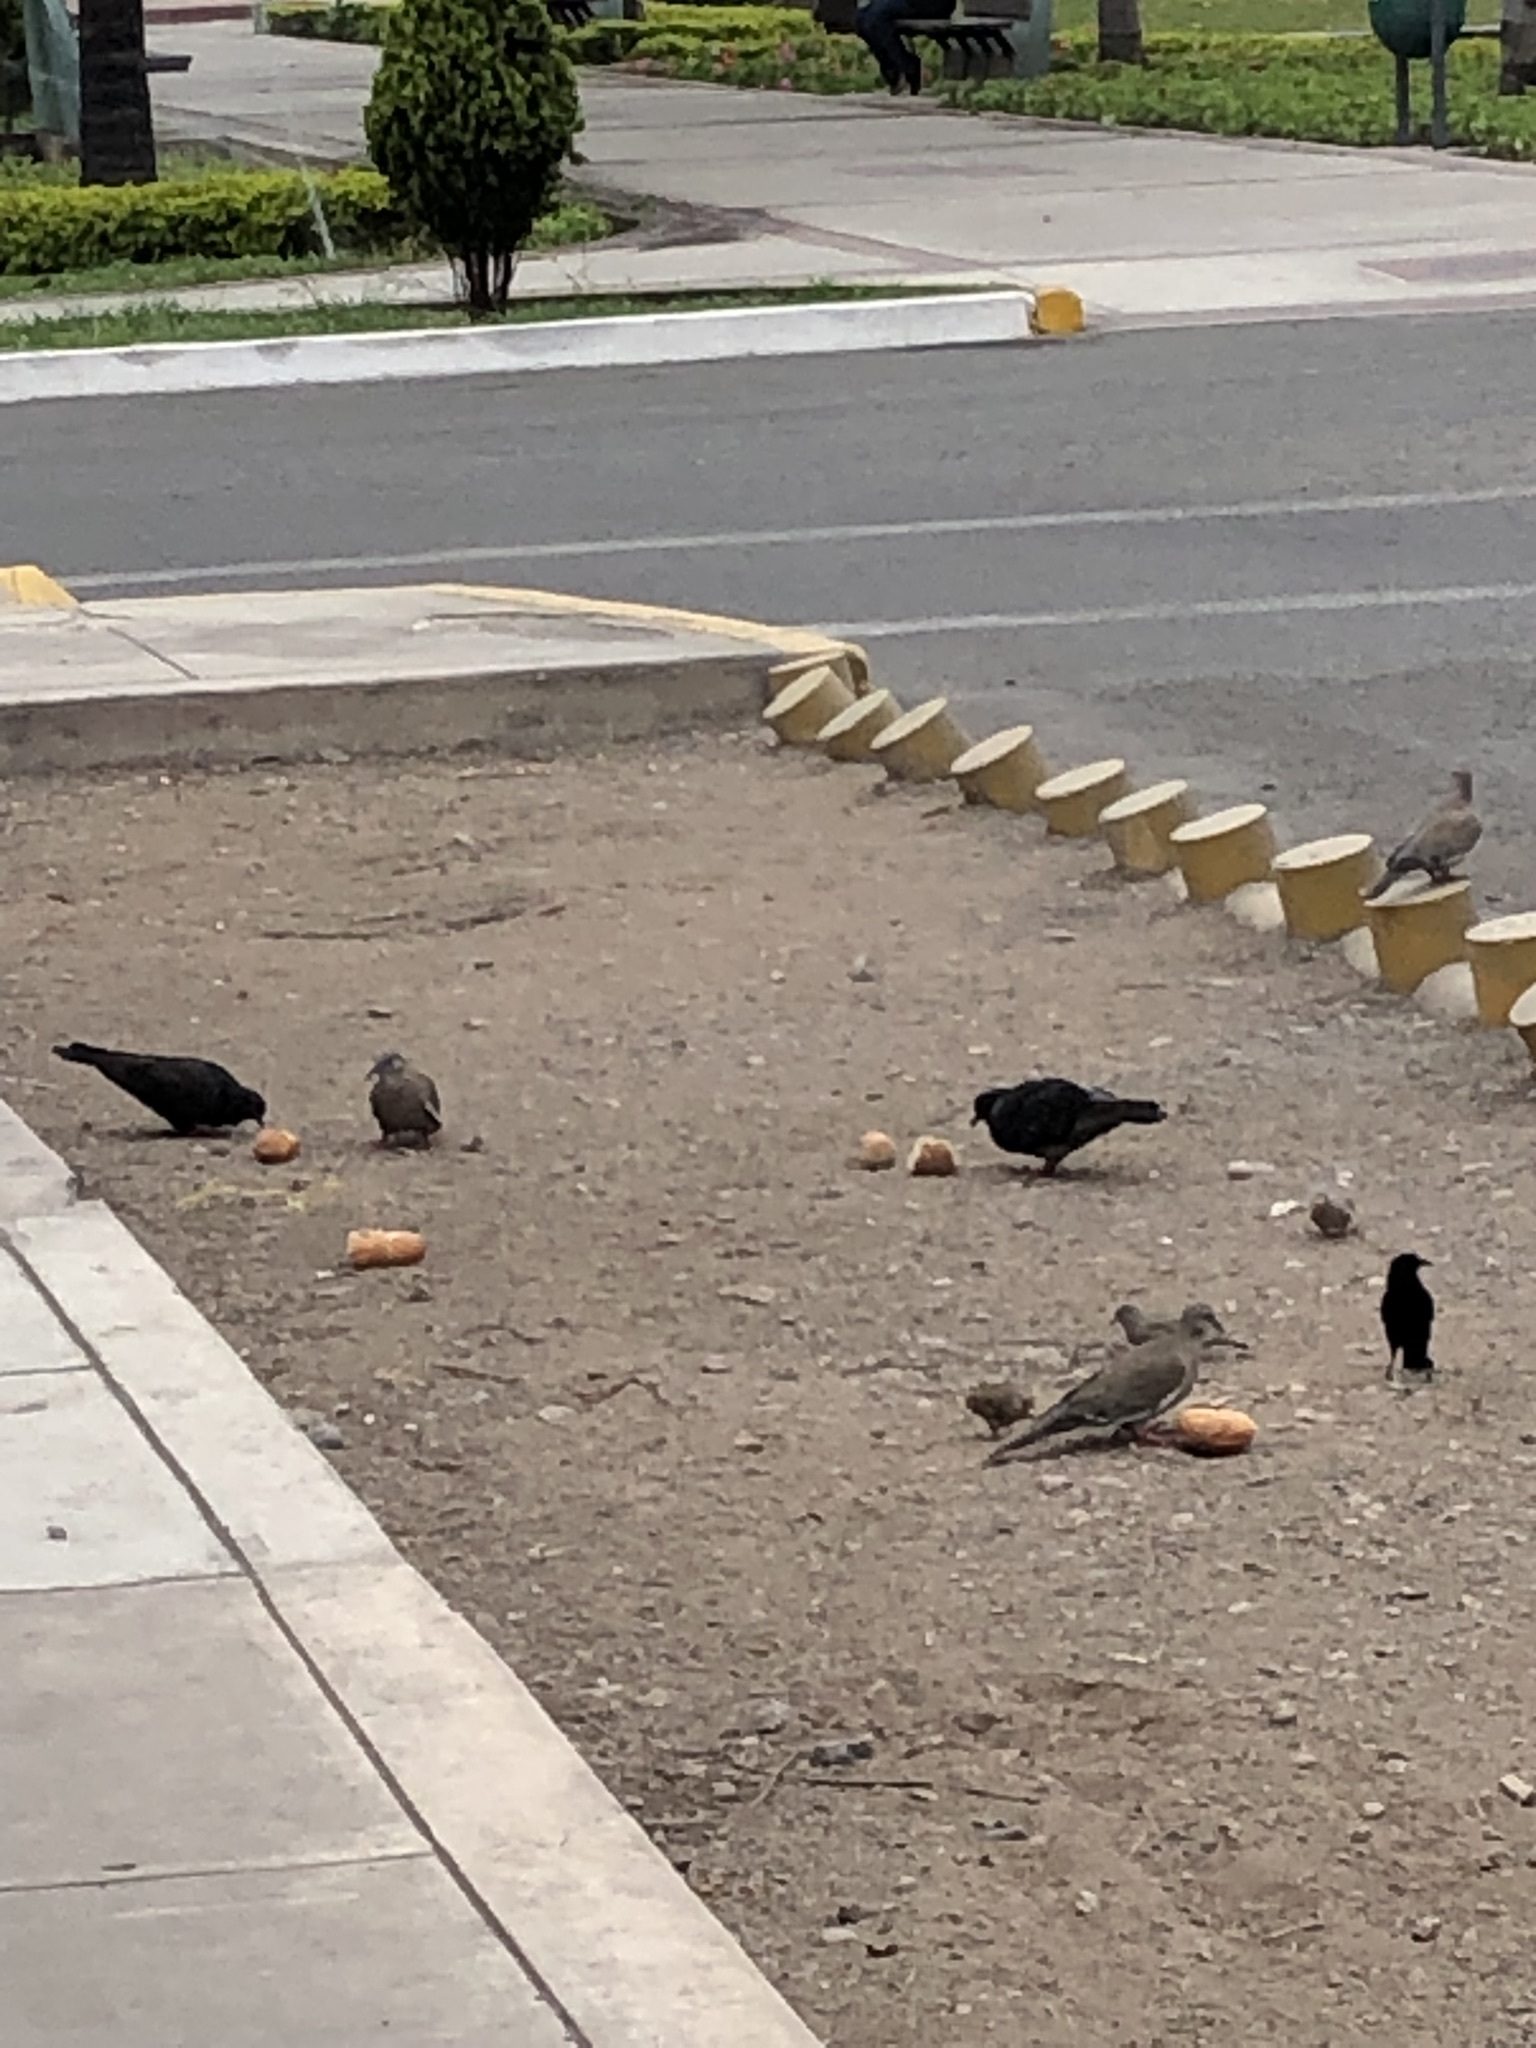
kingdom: Animalia
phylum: Chordata
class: Aves
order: Columbiformes
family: Columbidae
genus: Columbina
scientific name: Columbina cruziana
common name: Croaking ground dove
